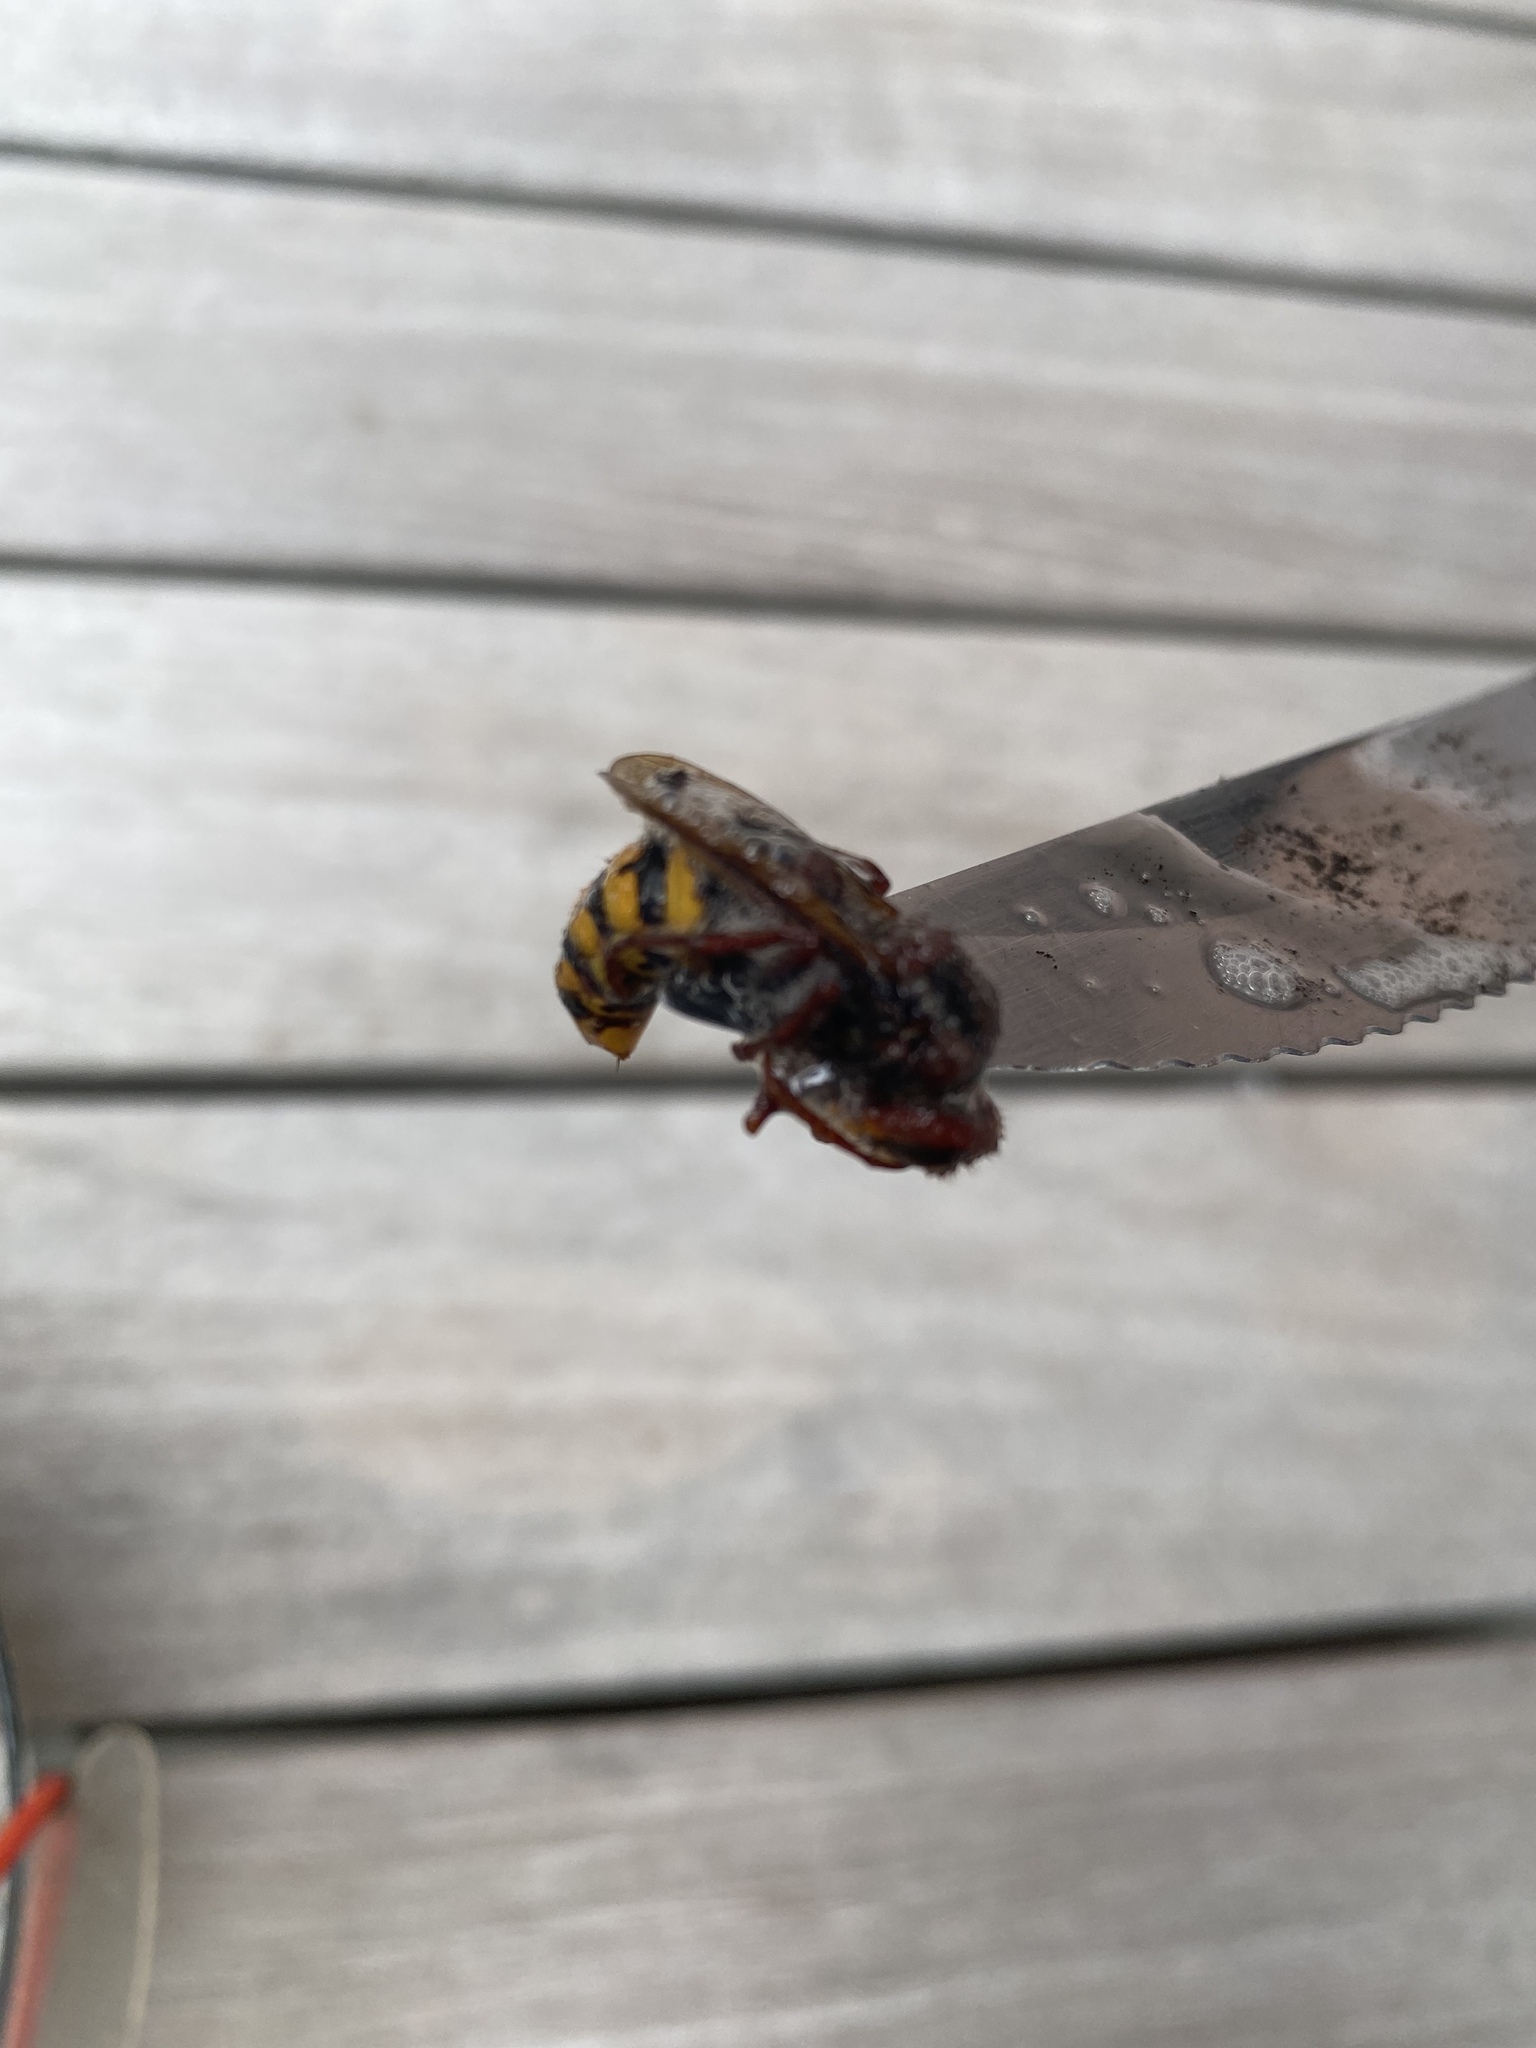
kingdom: Animalia
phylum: Arthropoda
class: Insecta
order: Hymenoptera
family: Vespidae
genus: Vespa
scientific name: Vespa crabro
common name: Hornet
